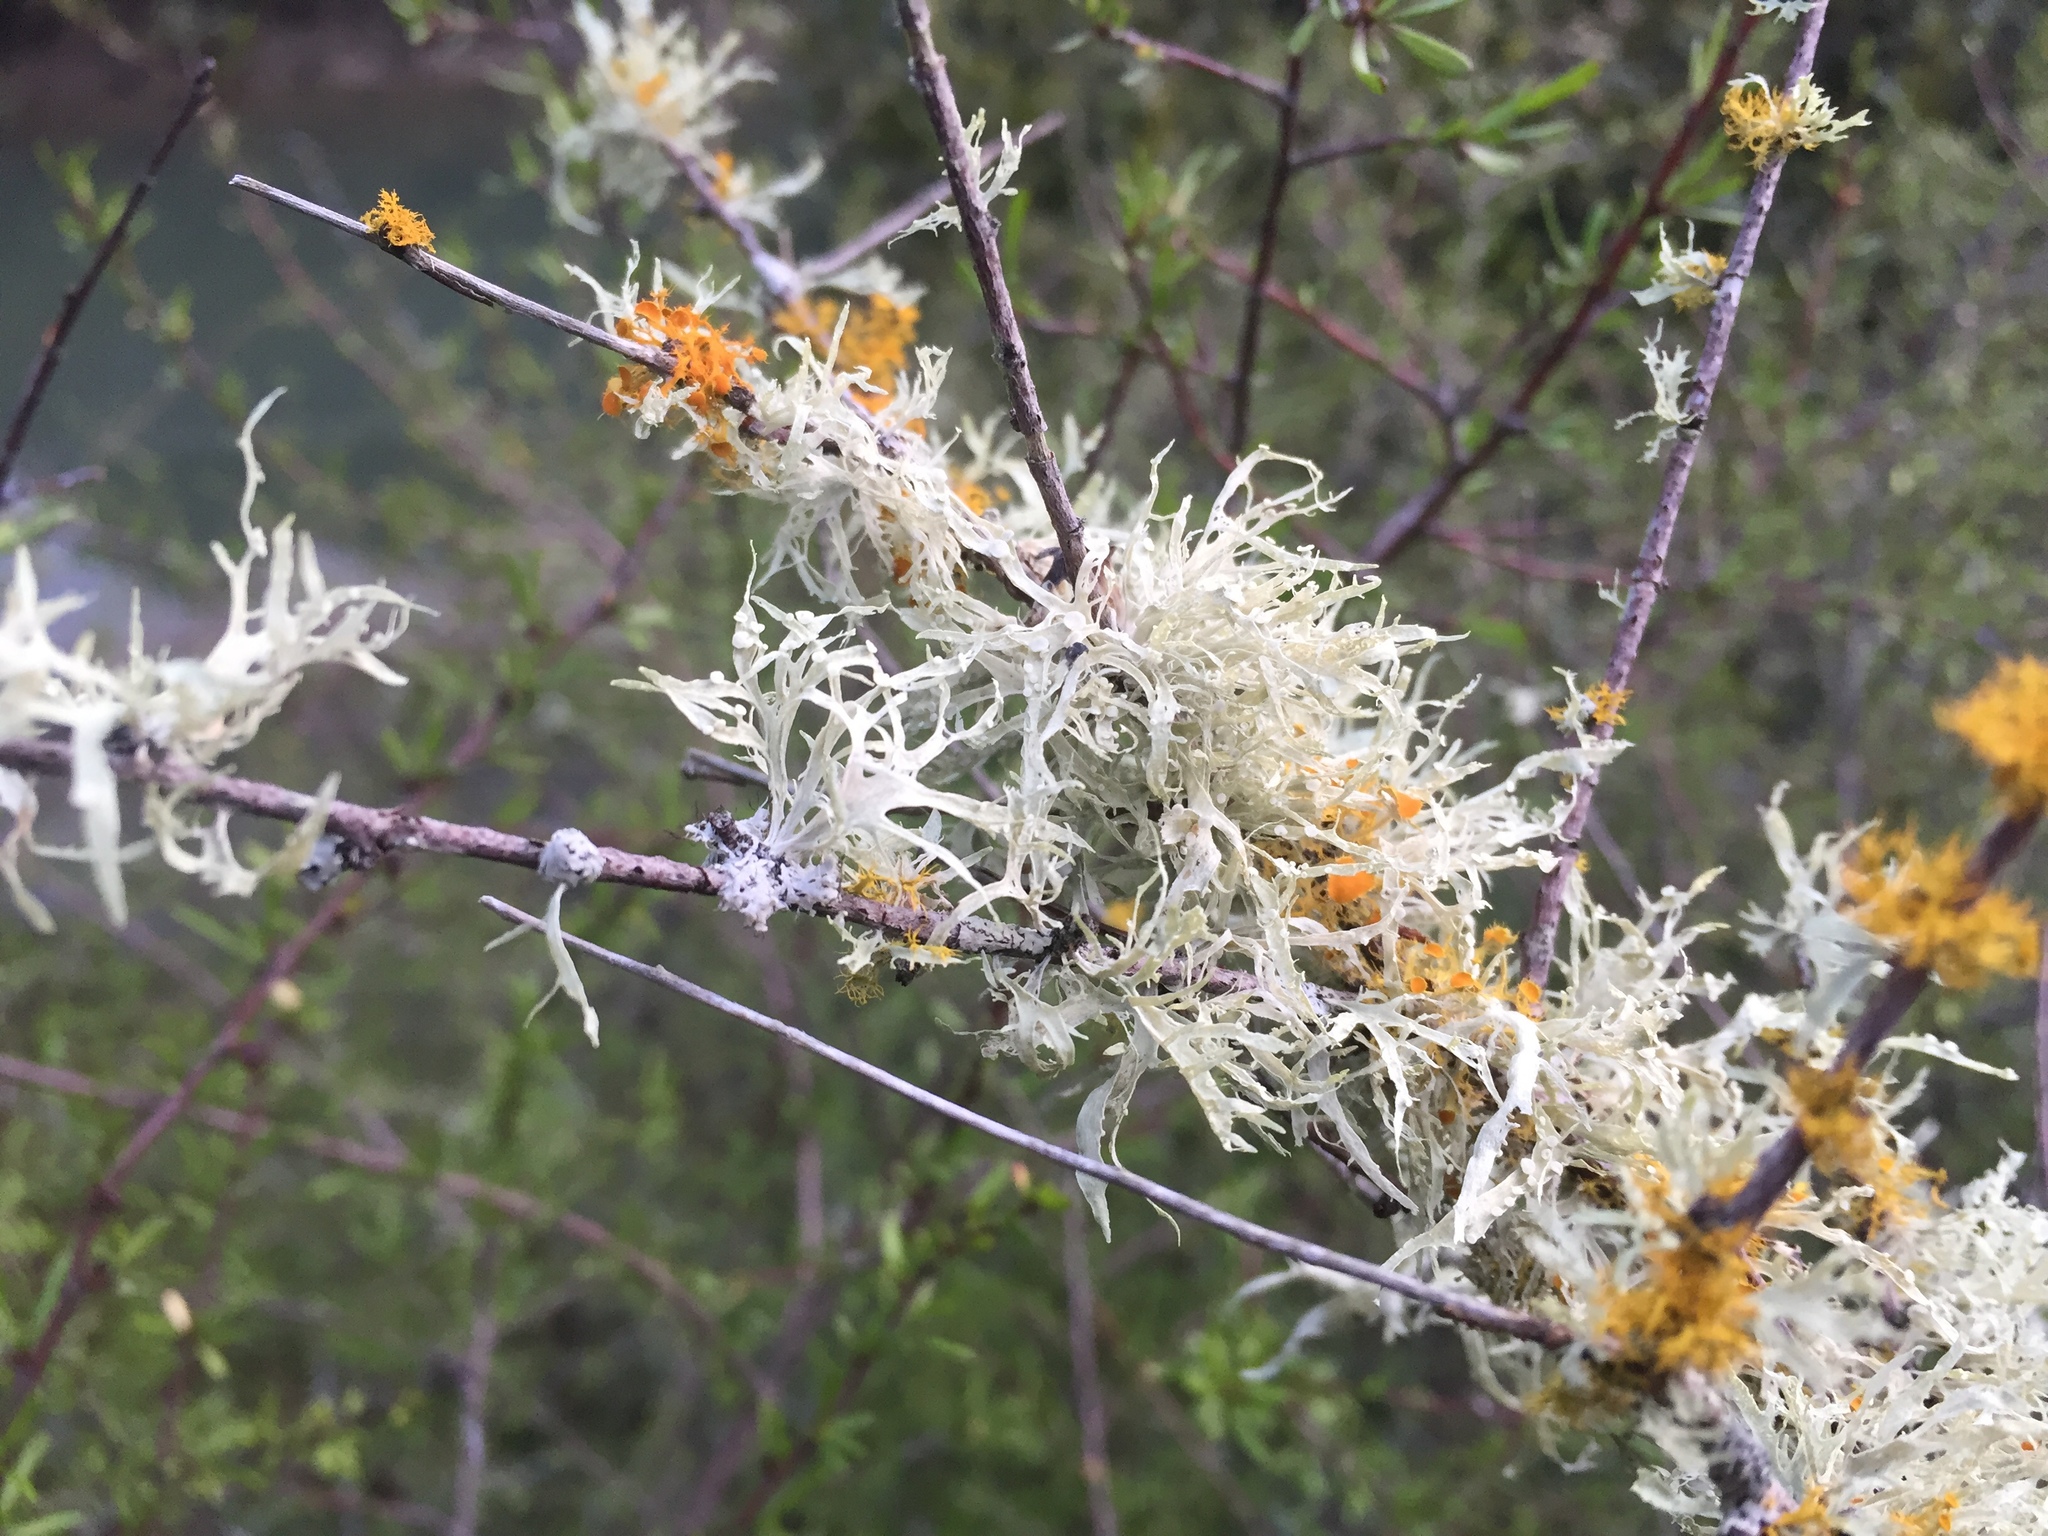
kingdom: Fungi
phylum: Ascomycota
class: Lecanoromycetes
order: Lecanorales
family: Ramalinaceae
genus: Ramalina
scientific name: Ramalina celastri
